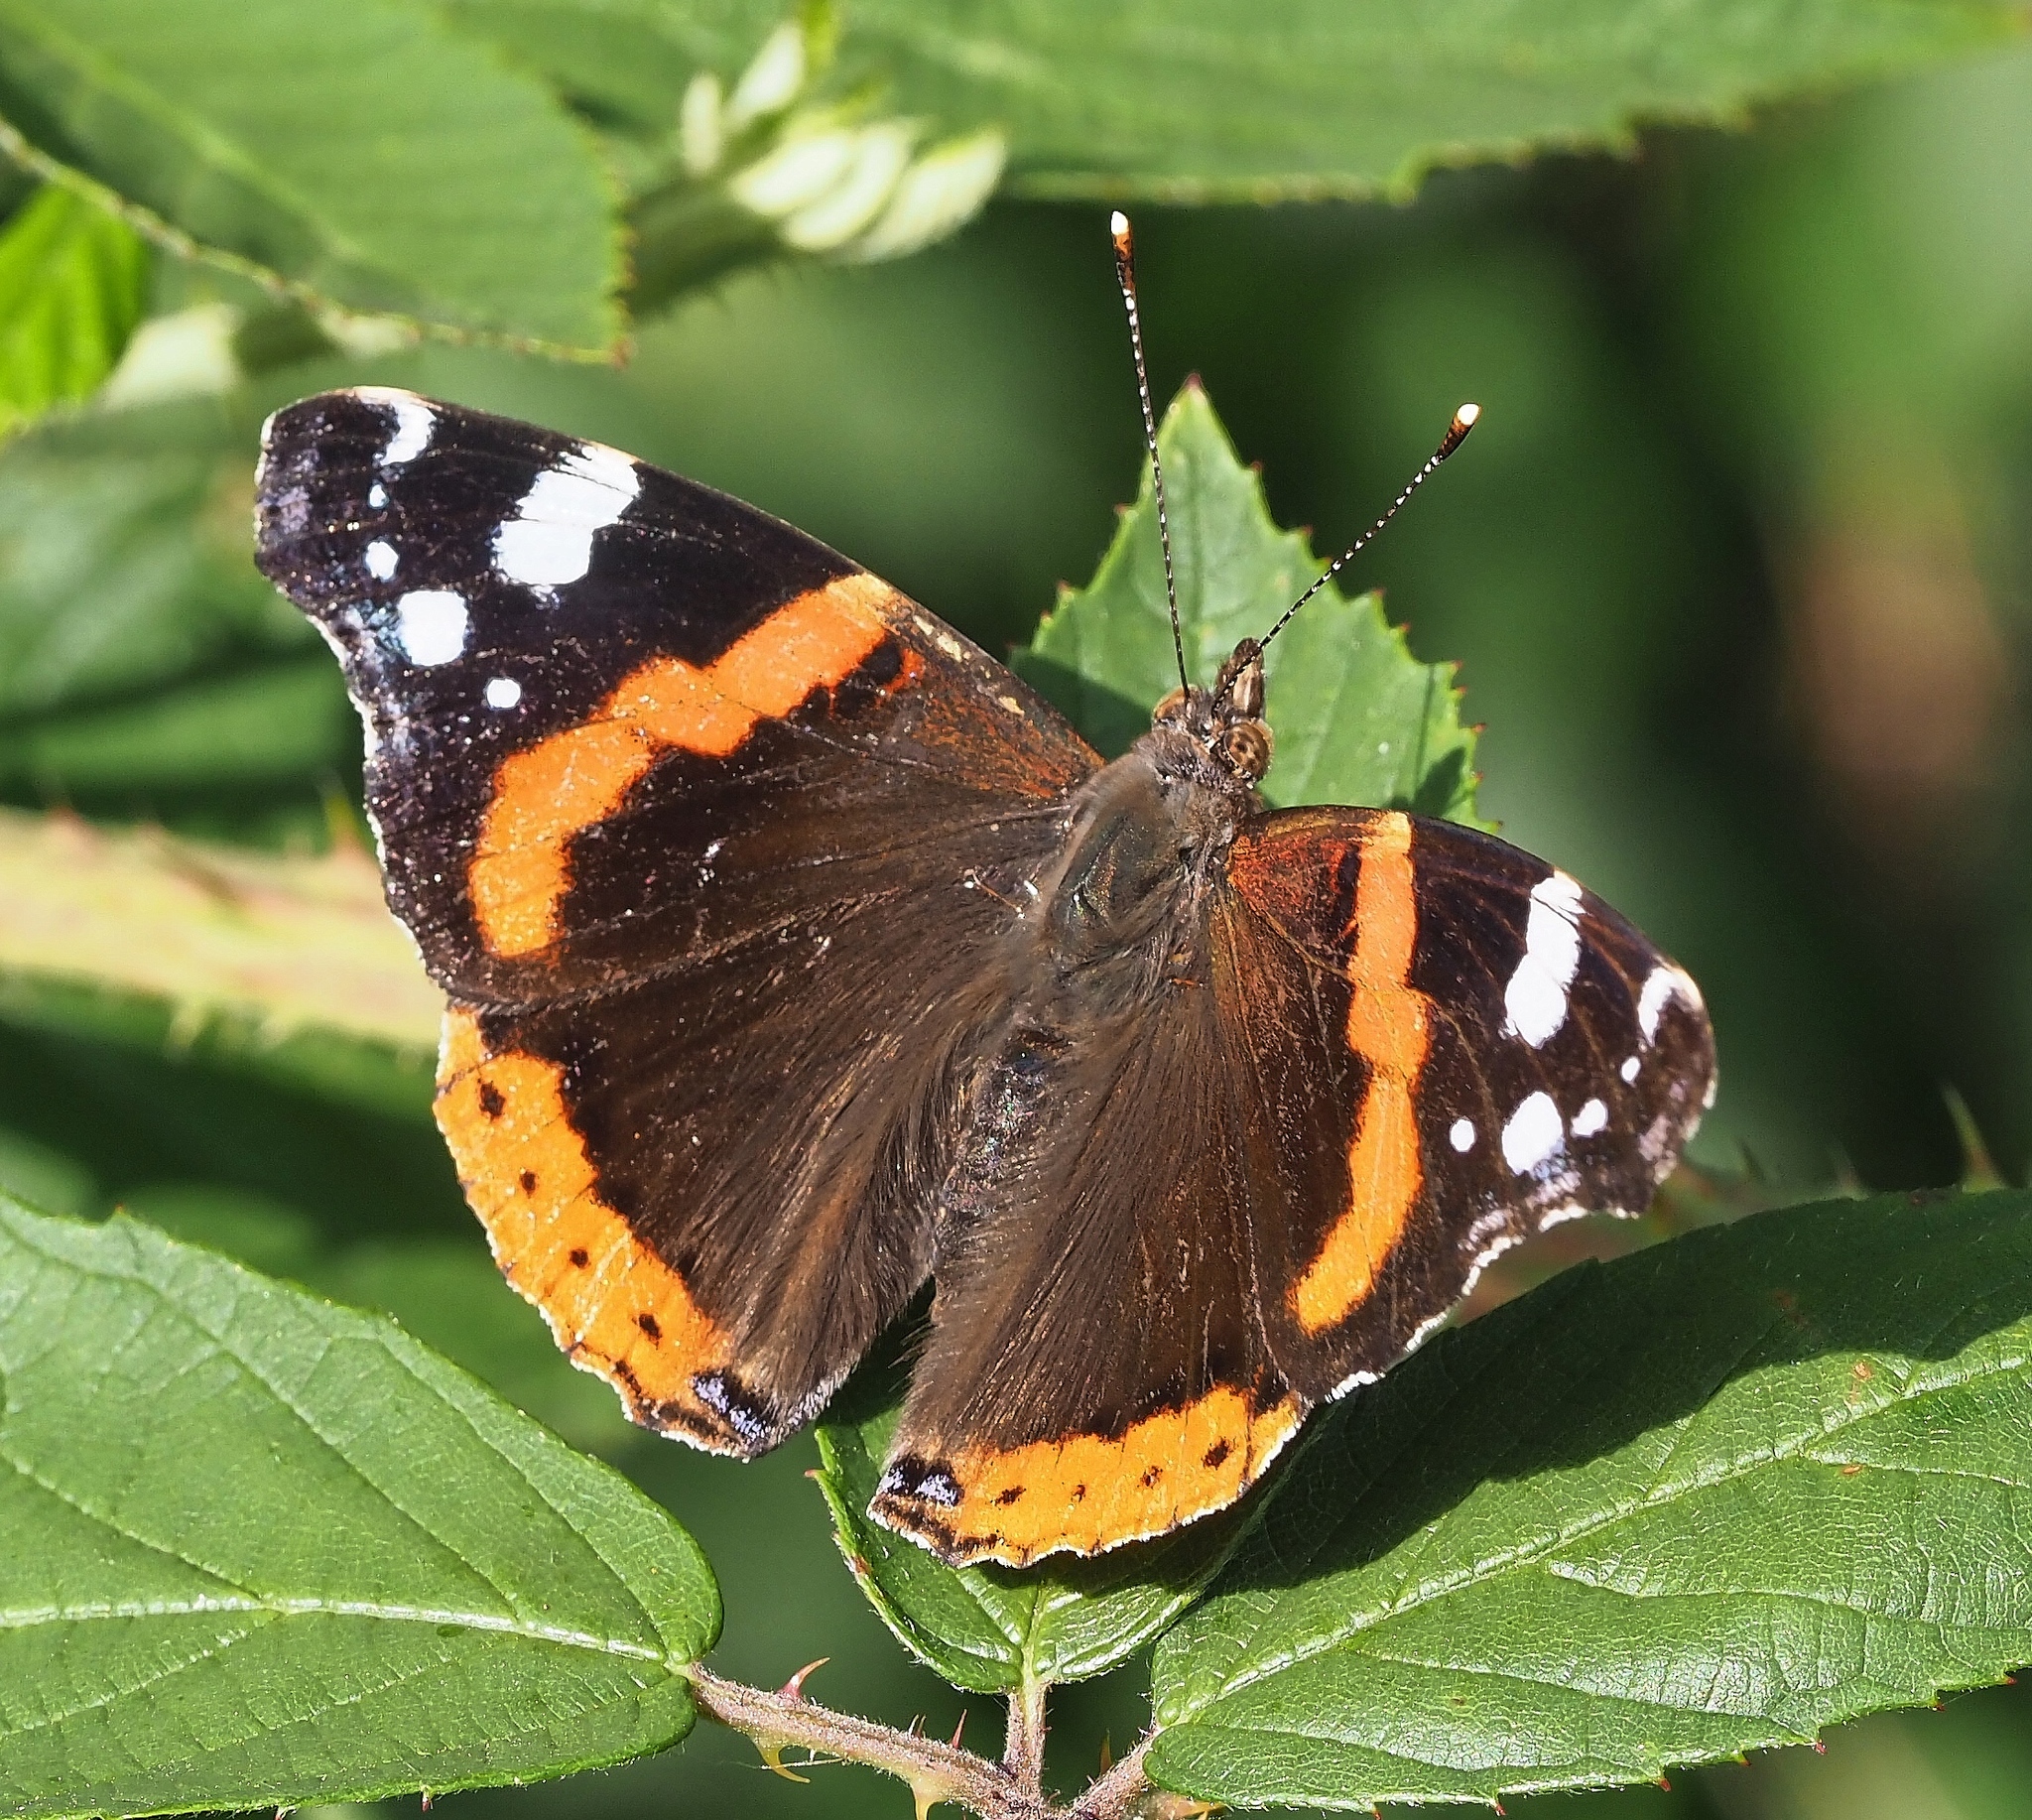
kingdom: Animalia
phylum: Arthropoda
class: Insecta
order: Lepidoptera
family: Nymphalidae
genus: Vanessa
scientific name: Vanessa atalanta
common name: Red admiral
